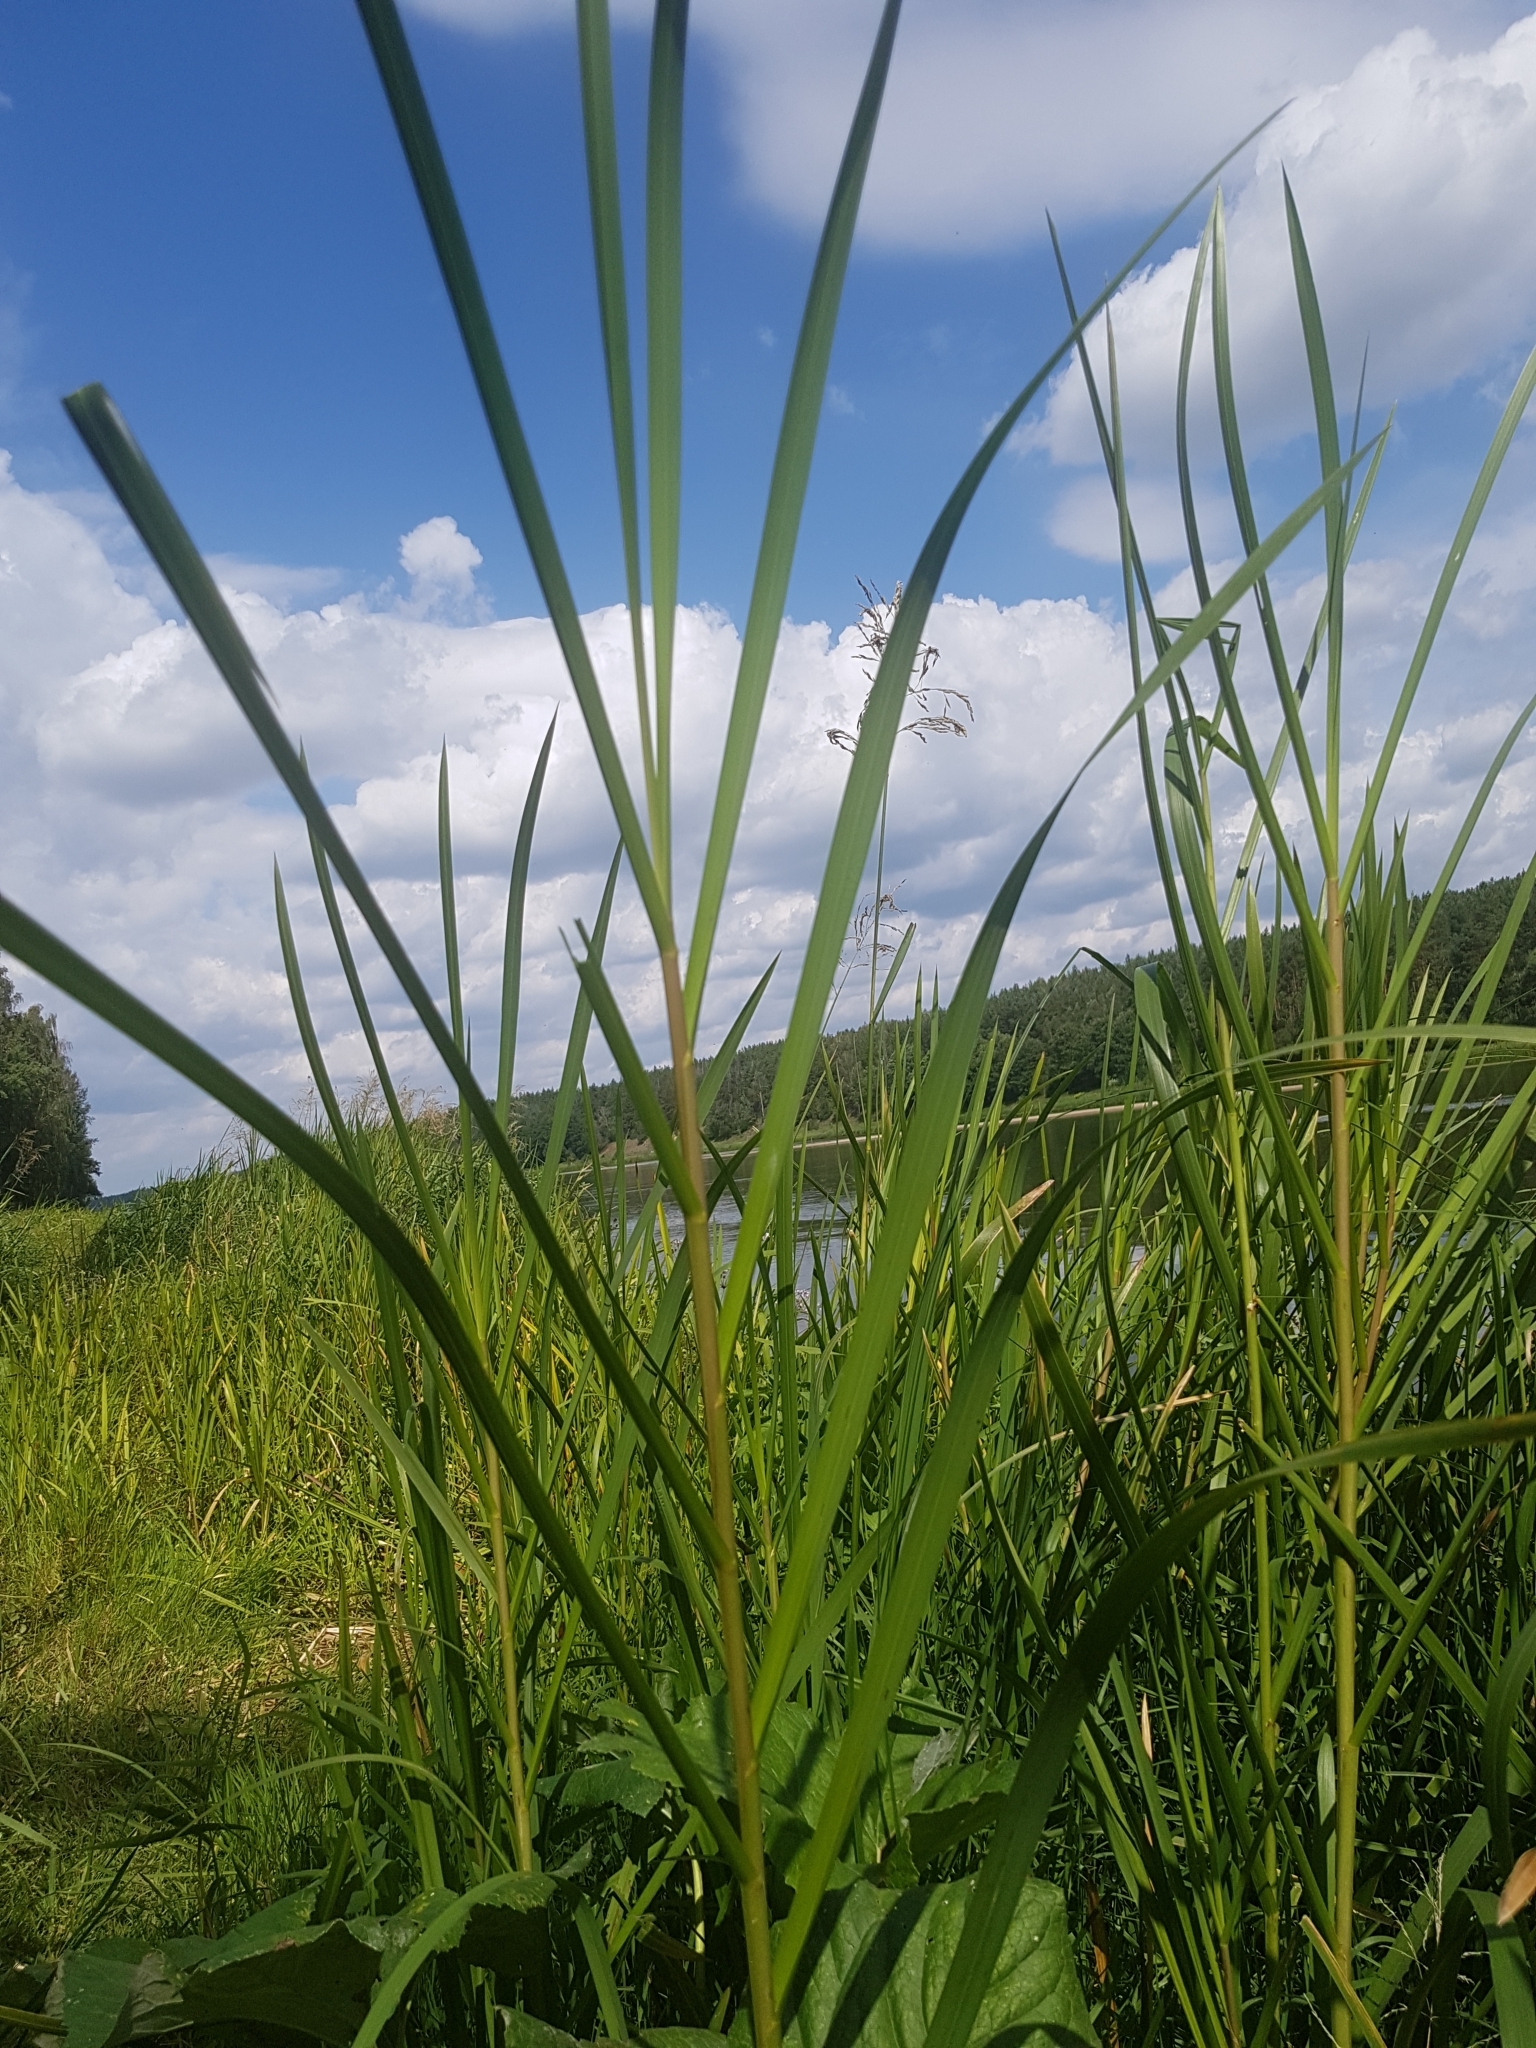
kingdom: Plantae
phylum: Tracheophyta
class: Liliopsida
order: Poales
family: Poaceae
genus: Glyceria
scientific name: Glyceria maxima
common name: Reed mannagrass
